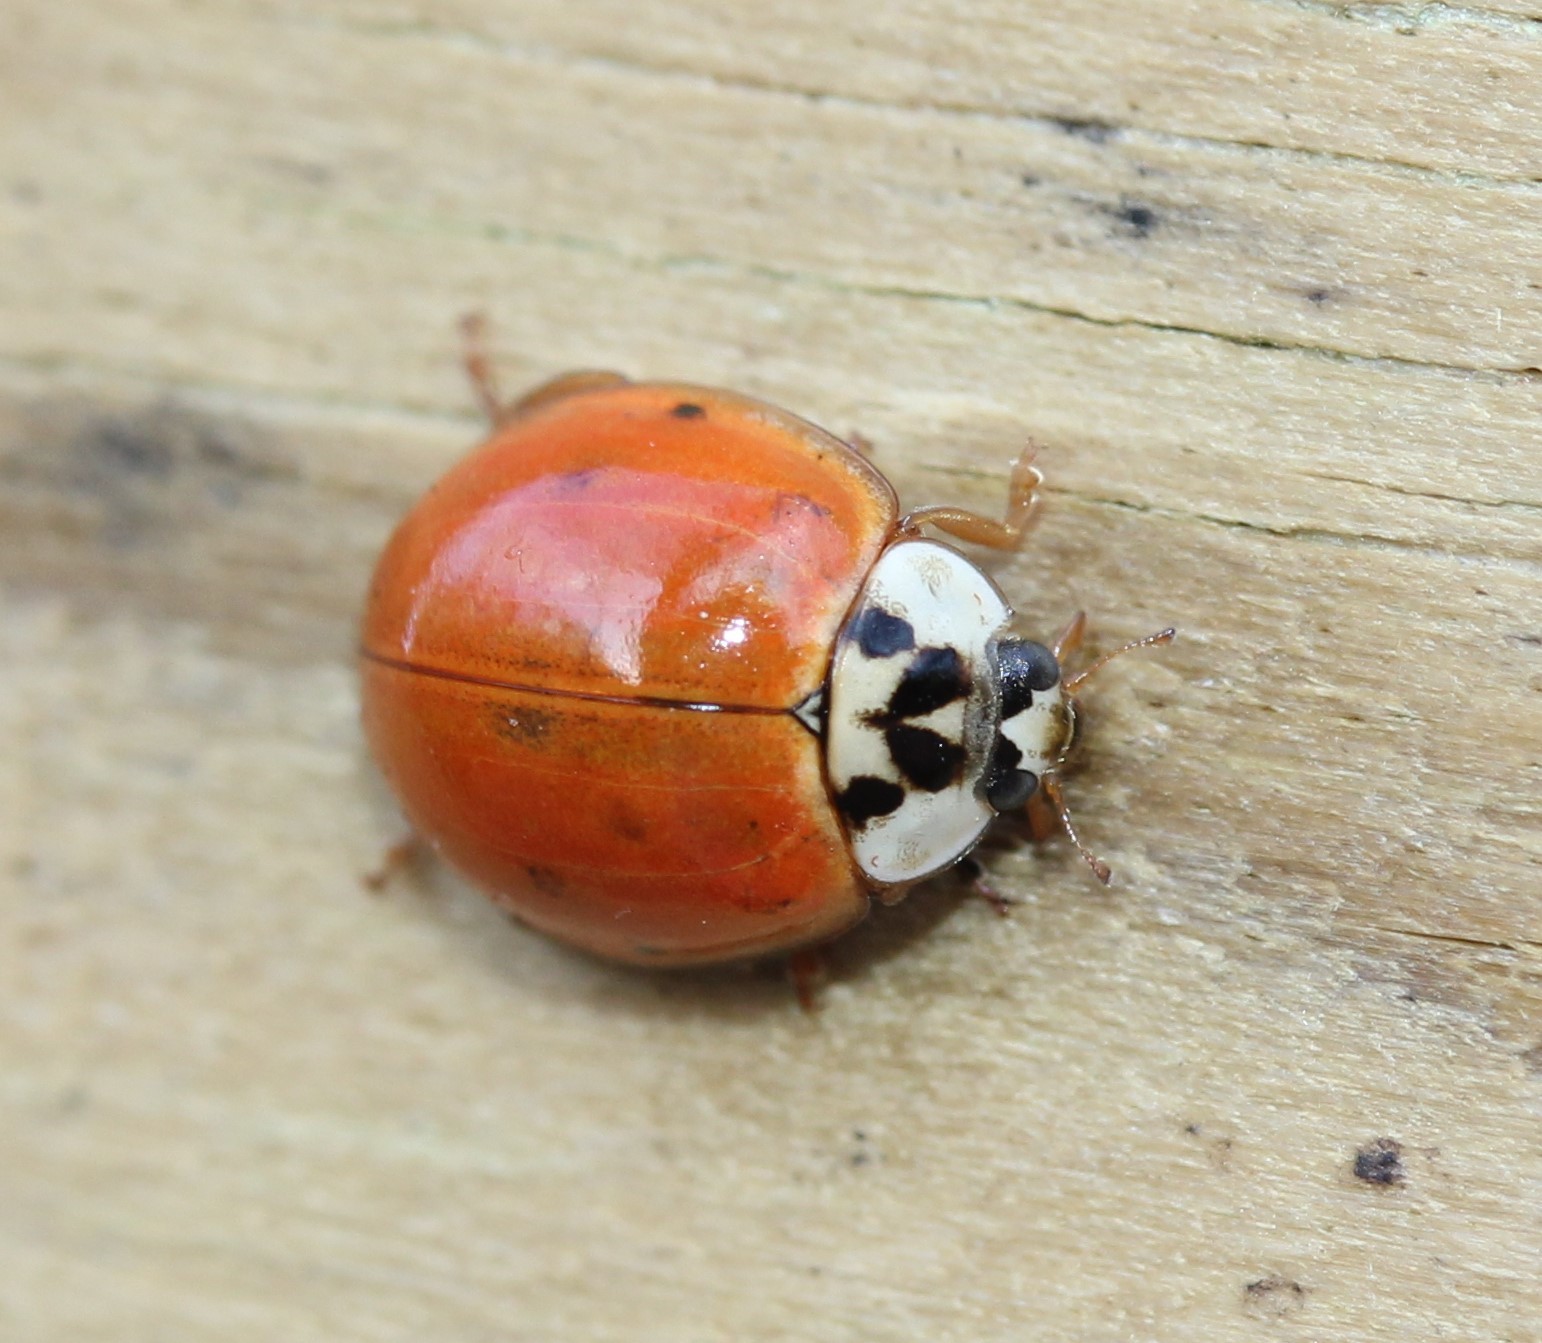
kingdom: Animalia
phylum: Arthropoda
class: Insecta
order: Coleoptera
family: Coccinellidae
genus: Harmonia
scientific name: Harmonia axyridis
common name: Harlequin ladybird
